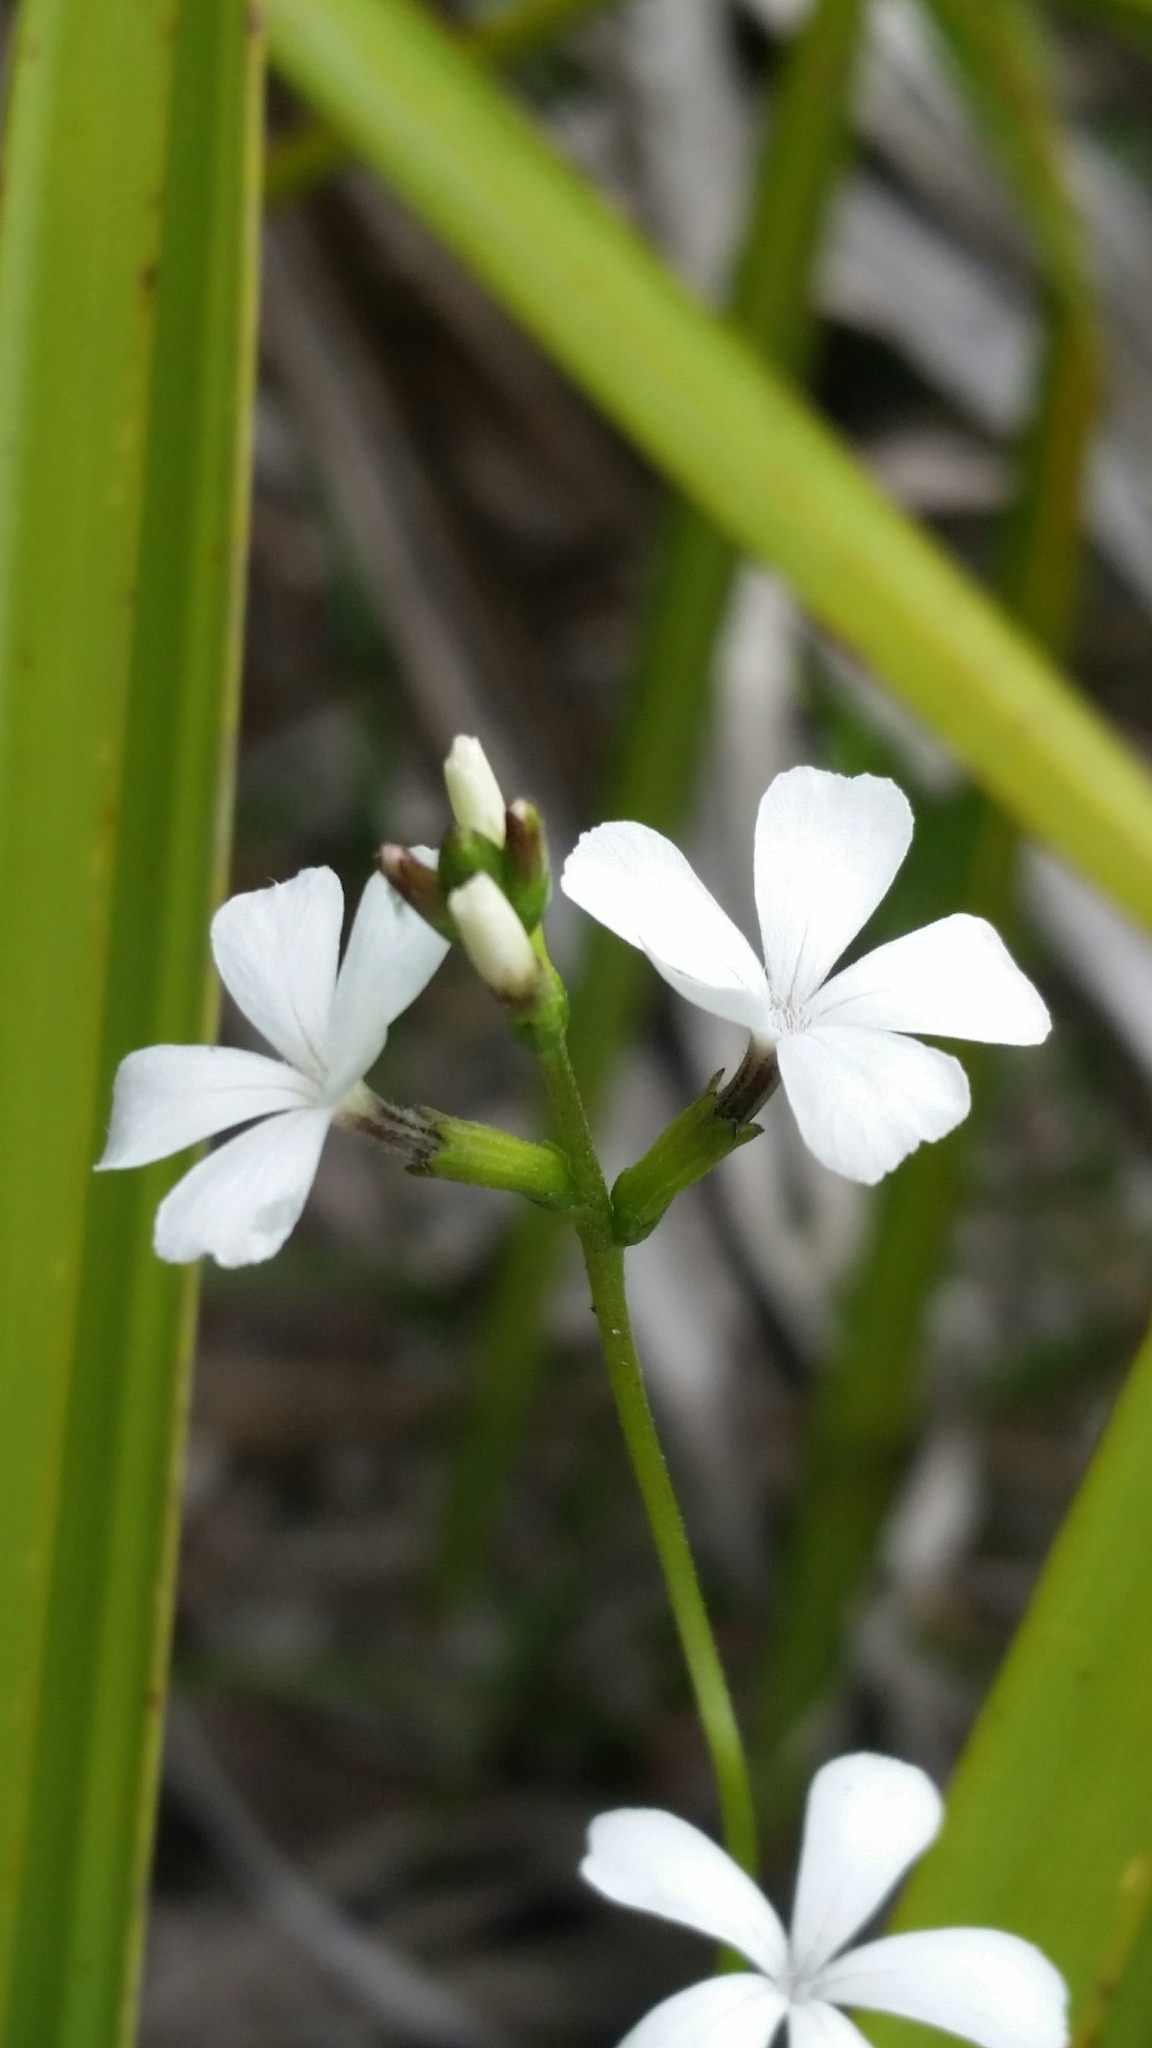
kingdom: Plantae
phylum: Tracheophyta
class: Magnoliopsida
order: Lamiales
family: Orobanchaceae
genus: Buchnera
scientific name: Buchnera floridana
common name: Florida bluehearts
